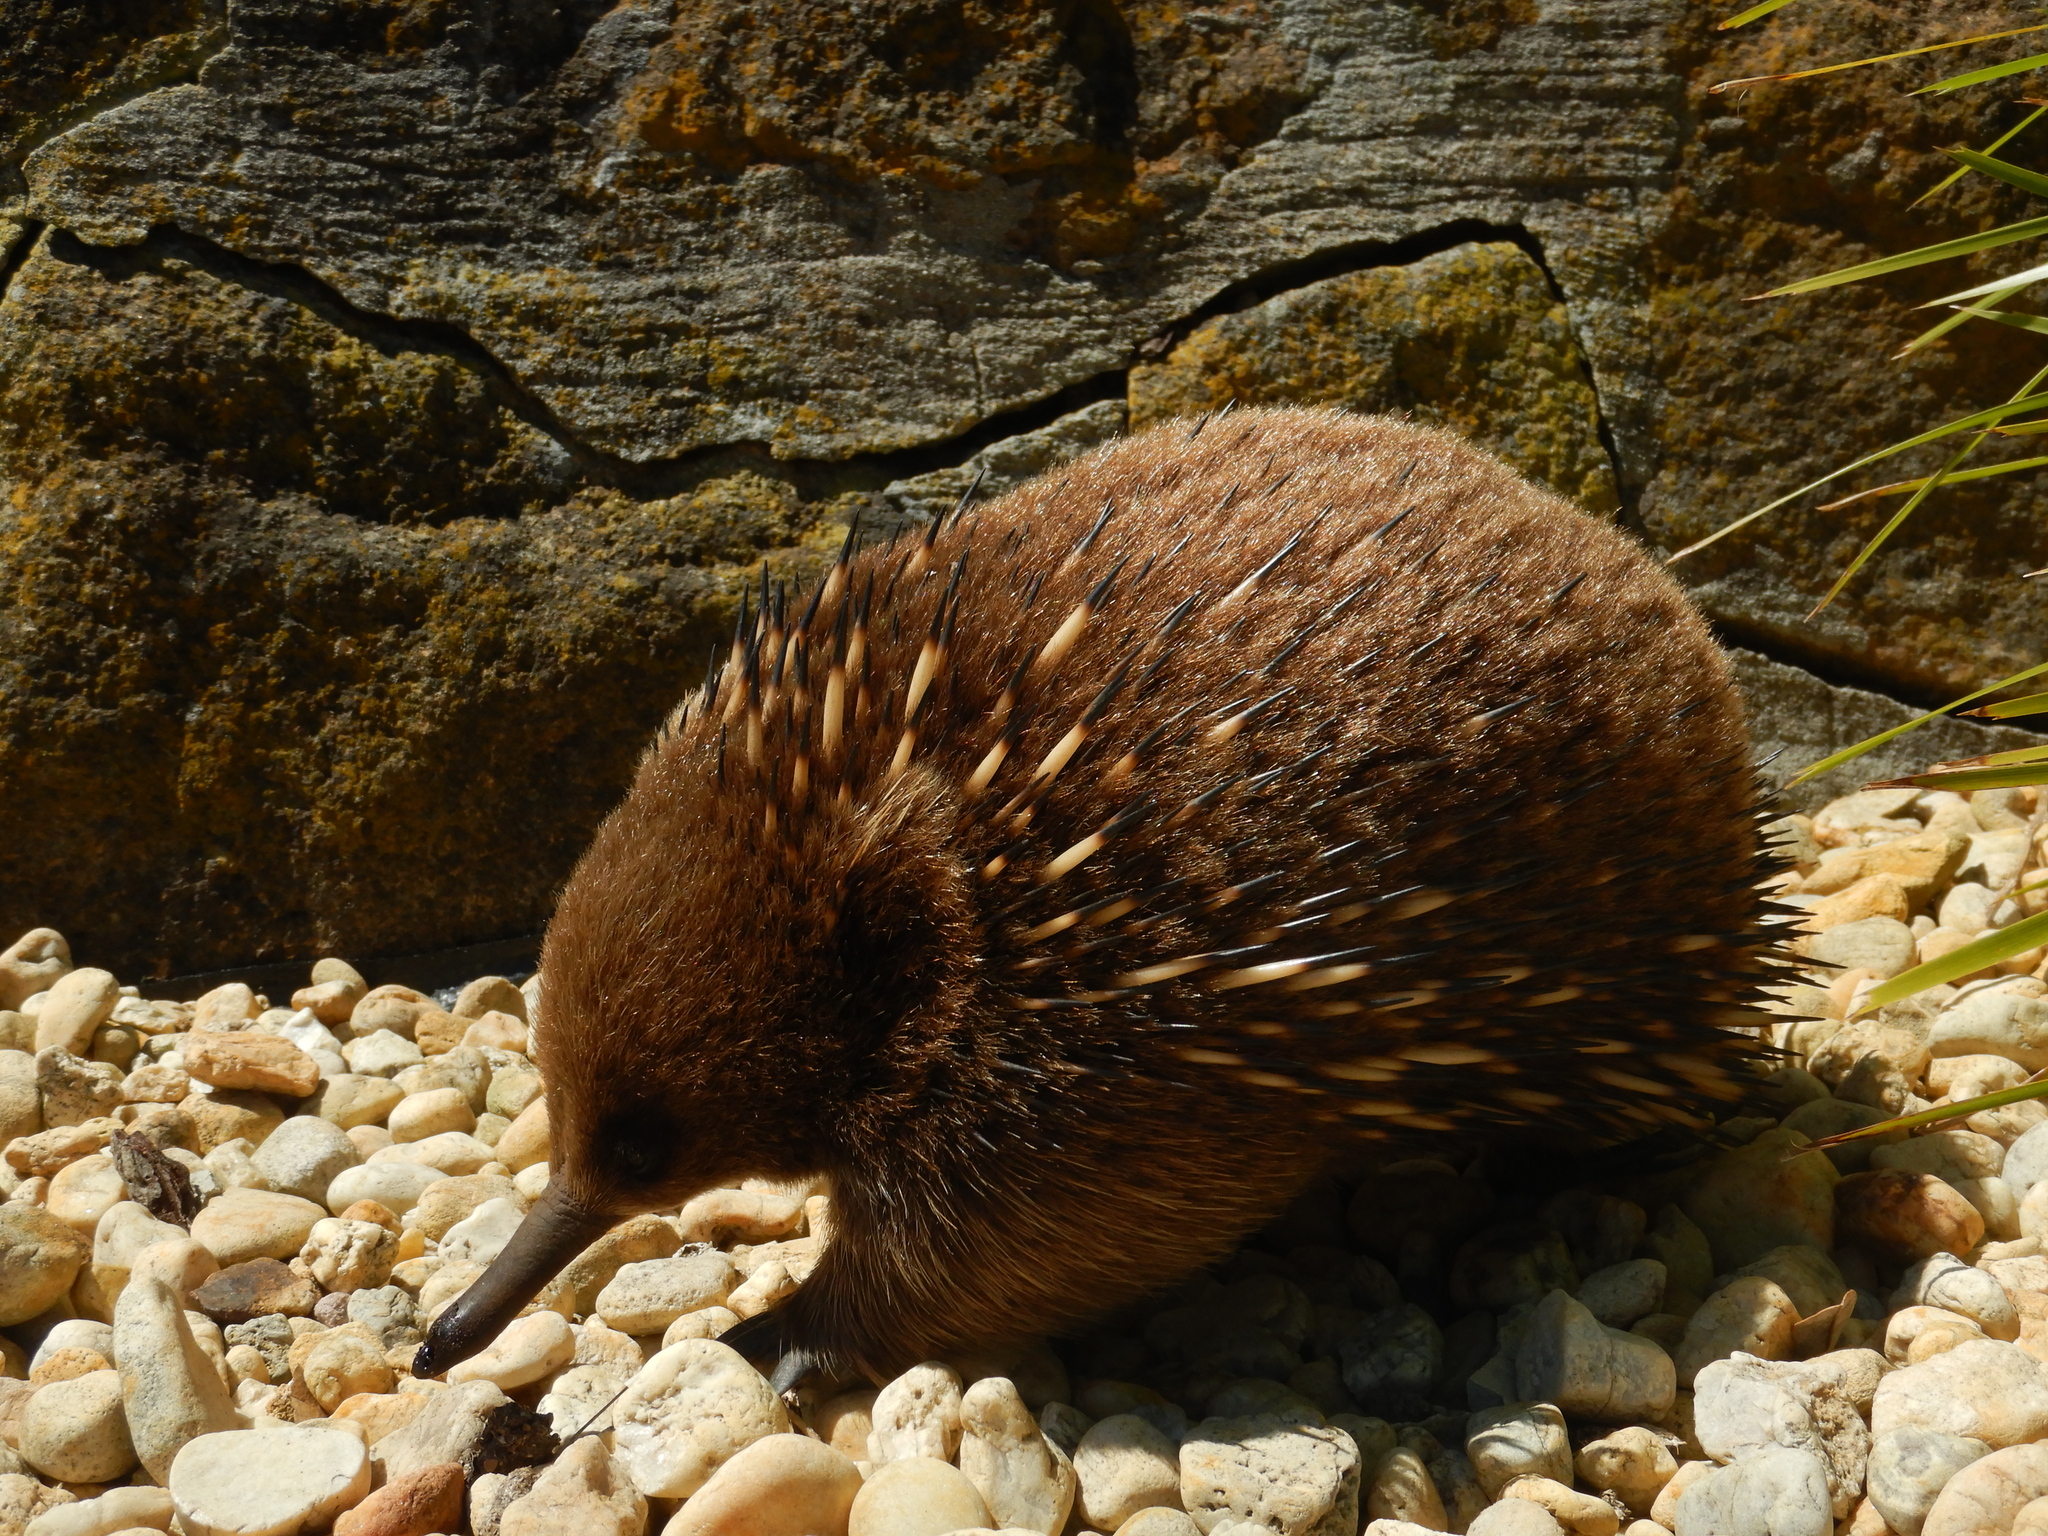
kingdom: Animalia
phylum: Chordata
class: Mammalia
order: Monotremata
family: Tachyglossidae
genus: Tachyglossus
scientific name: Tachyglossus aculeatus
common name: Short-beaked echidna
